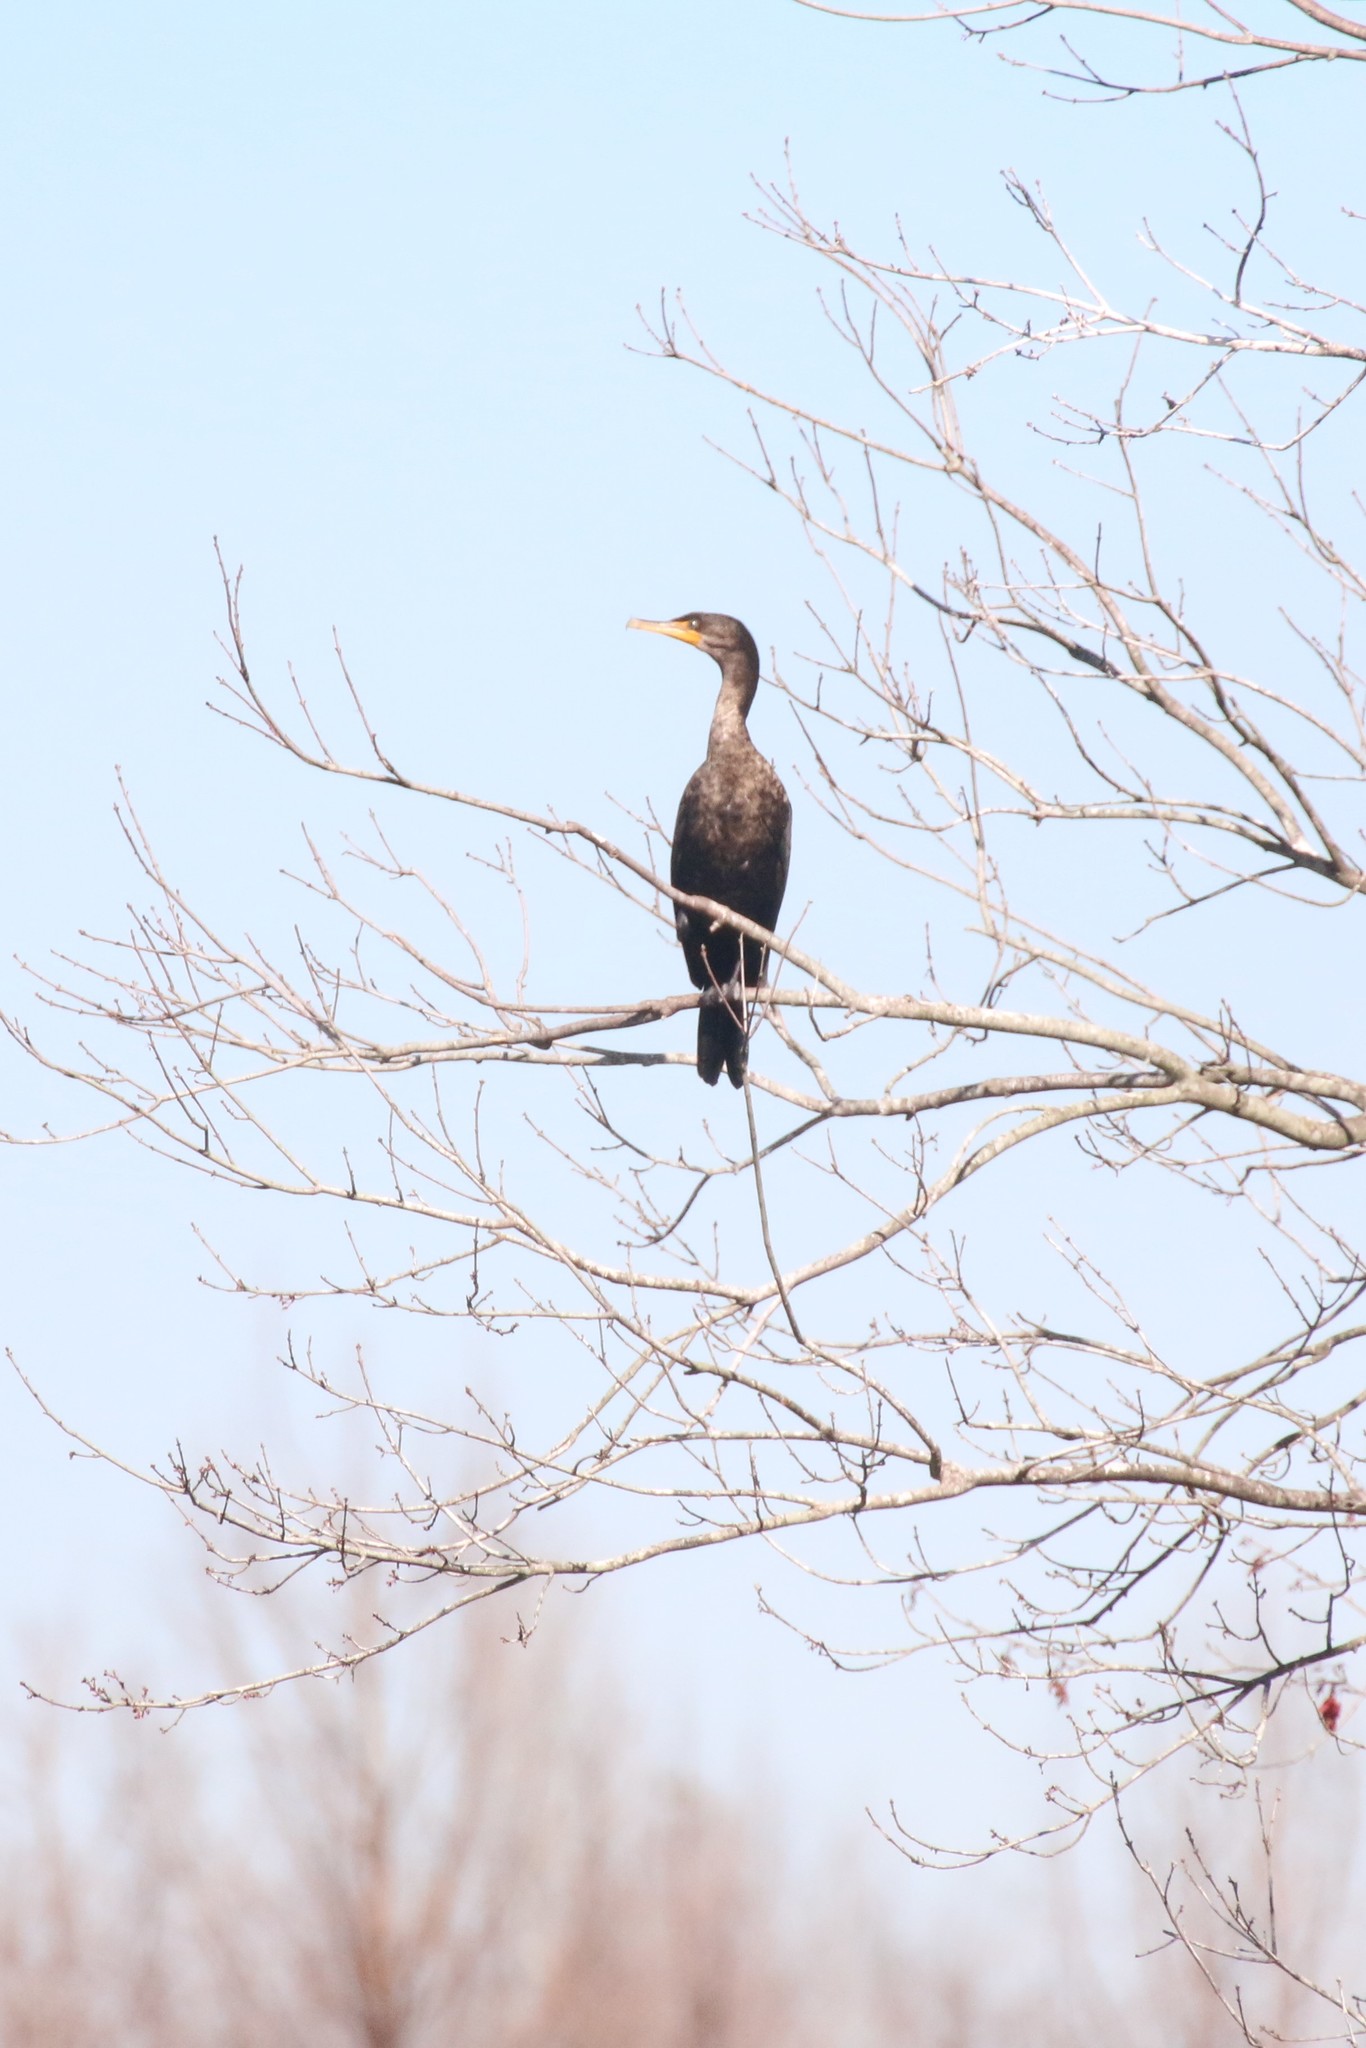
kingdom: Animalia
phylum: Chordata
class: Aves
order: Suliformes
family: Phalacrocoracidae
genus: Phalacrocorax
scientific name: Phalacrocorax auritus
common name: Double-crested cormorant
